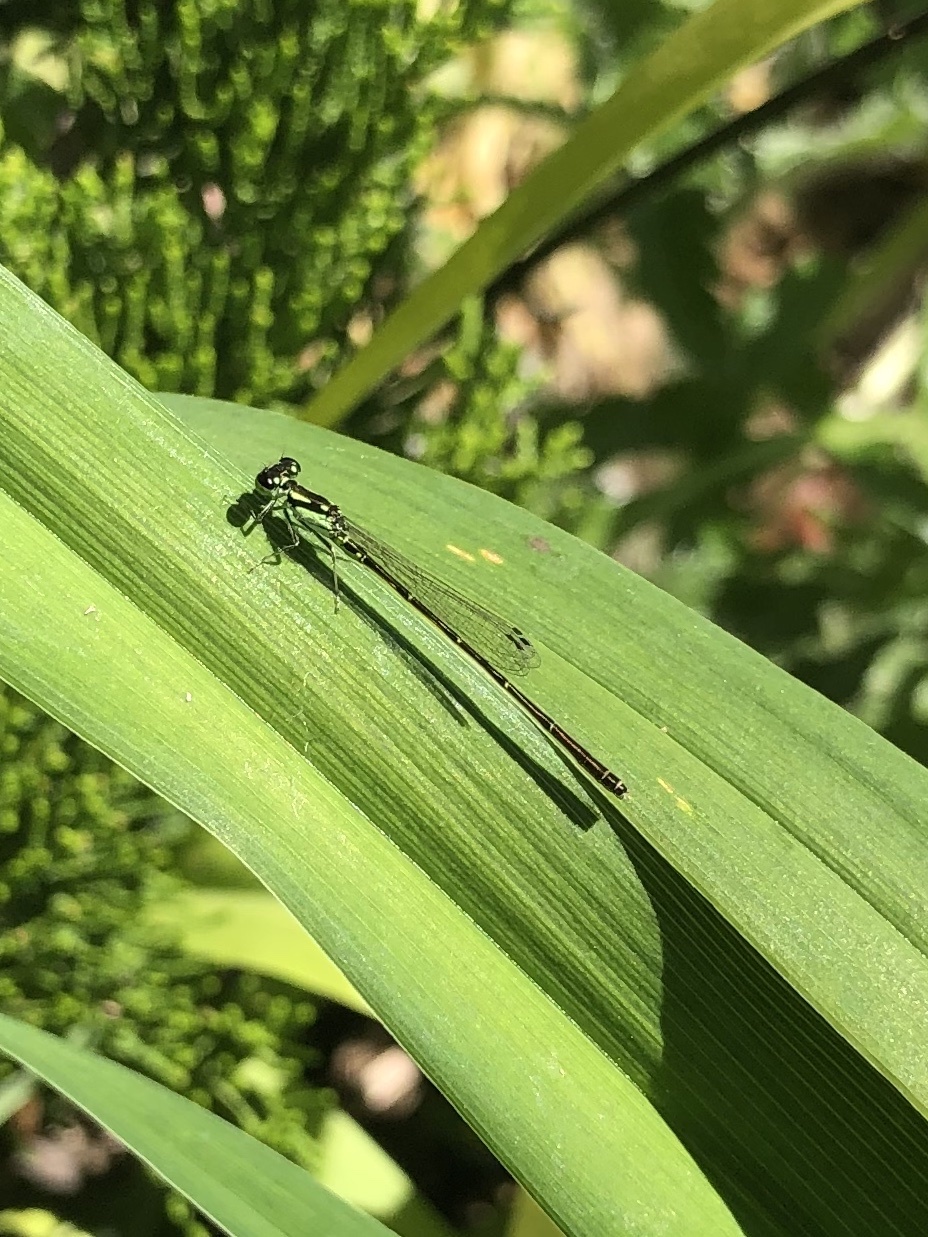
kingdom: Animalia
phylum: Arthropoda
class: Insecta
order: Odonata
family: Coenagrionidae
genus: Ischnura
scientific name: Ischnura posita
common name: Fragile forktail
